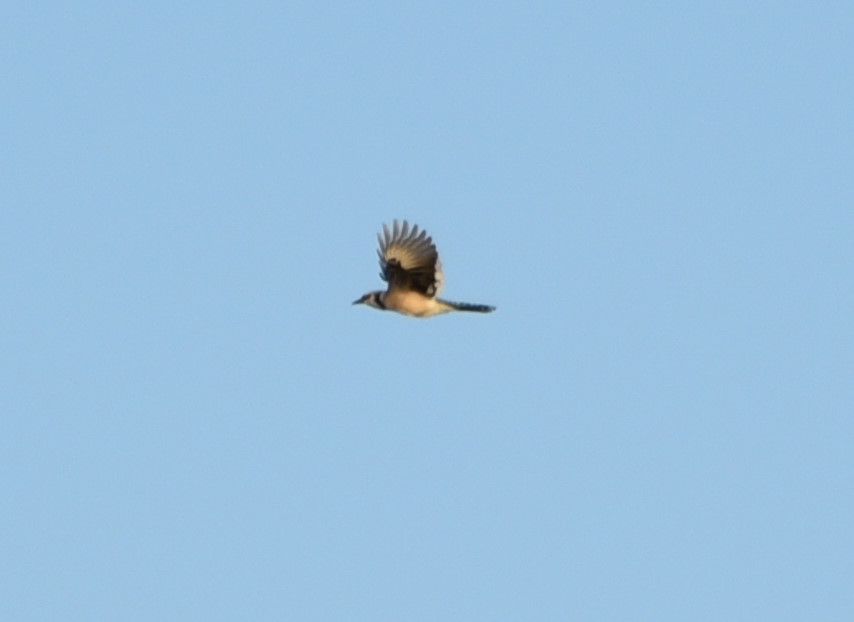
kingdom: Animalia
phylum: Chordata
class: Aves
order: Passeriformes
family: Corvidae
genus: Cyanocitta
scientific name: Cyanocitta cristata
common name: Blue jay
